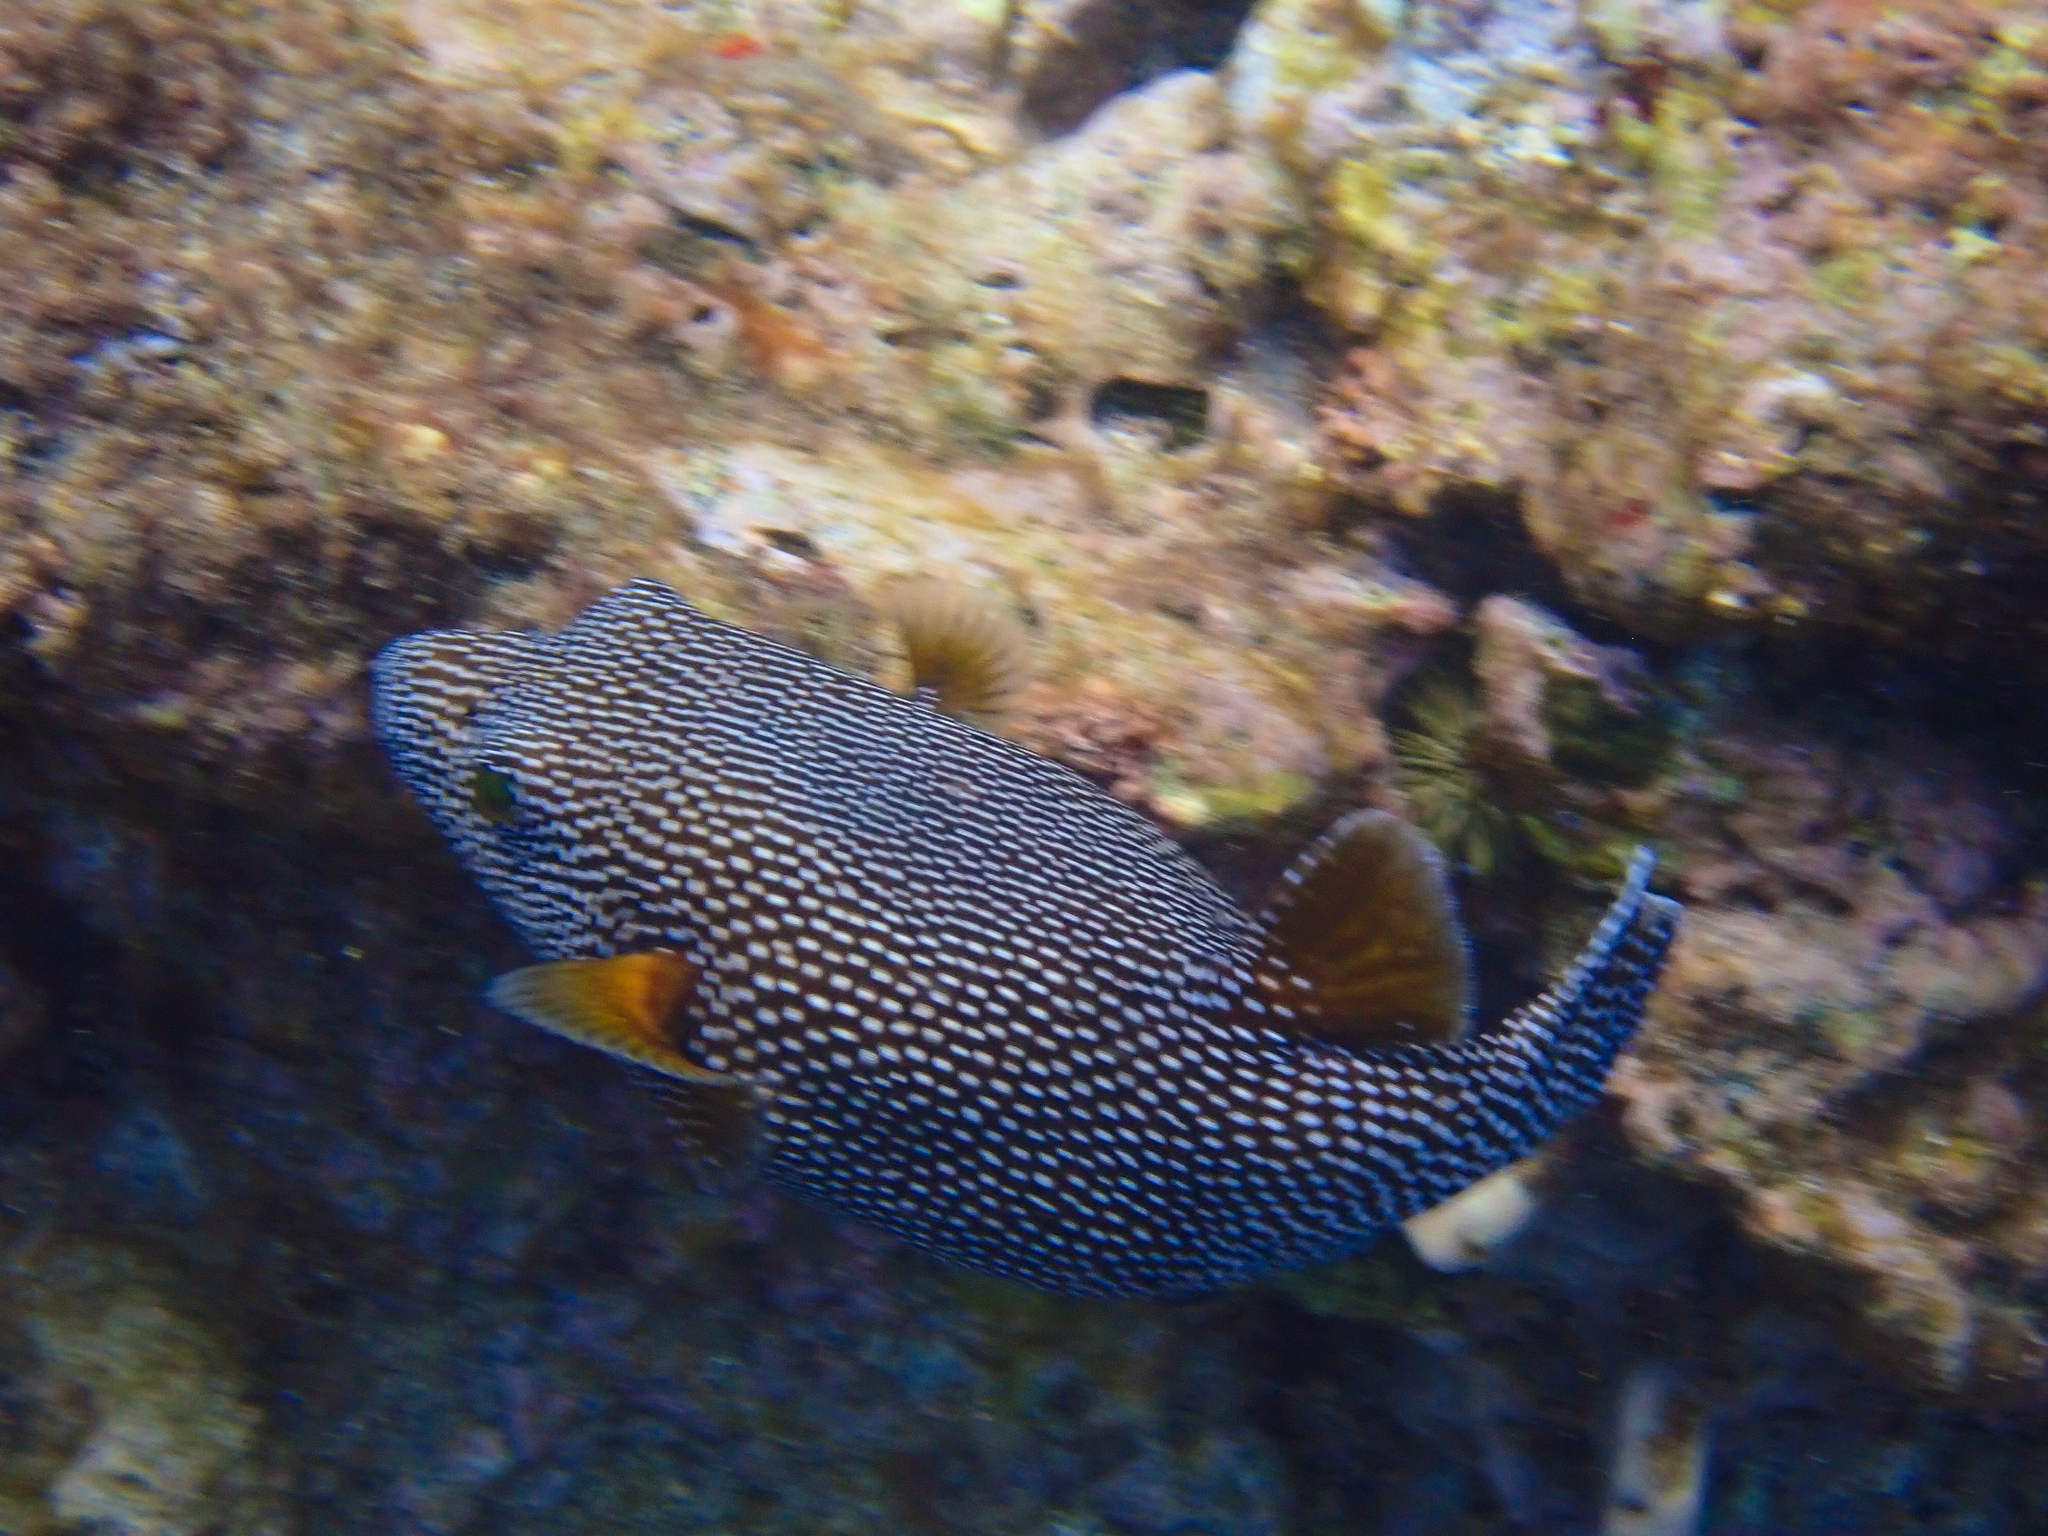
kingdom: Animalia
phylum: Chordata
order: Tetraodontiformes
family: Tetraodontidae
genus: Arothron
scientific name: Arothron meleagris
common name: Guinea-fowl pufferfish
